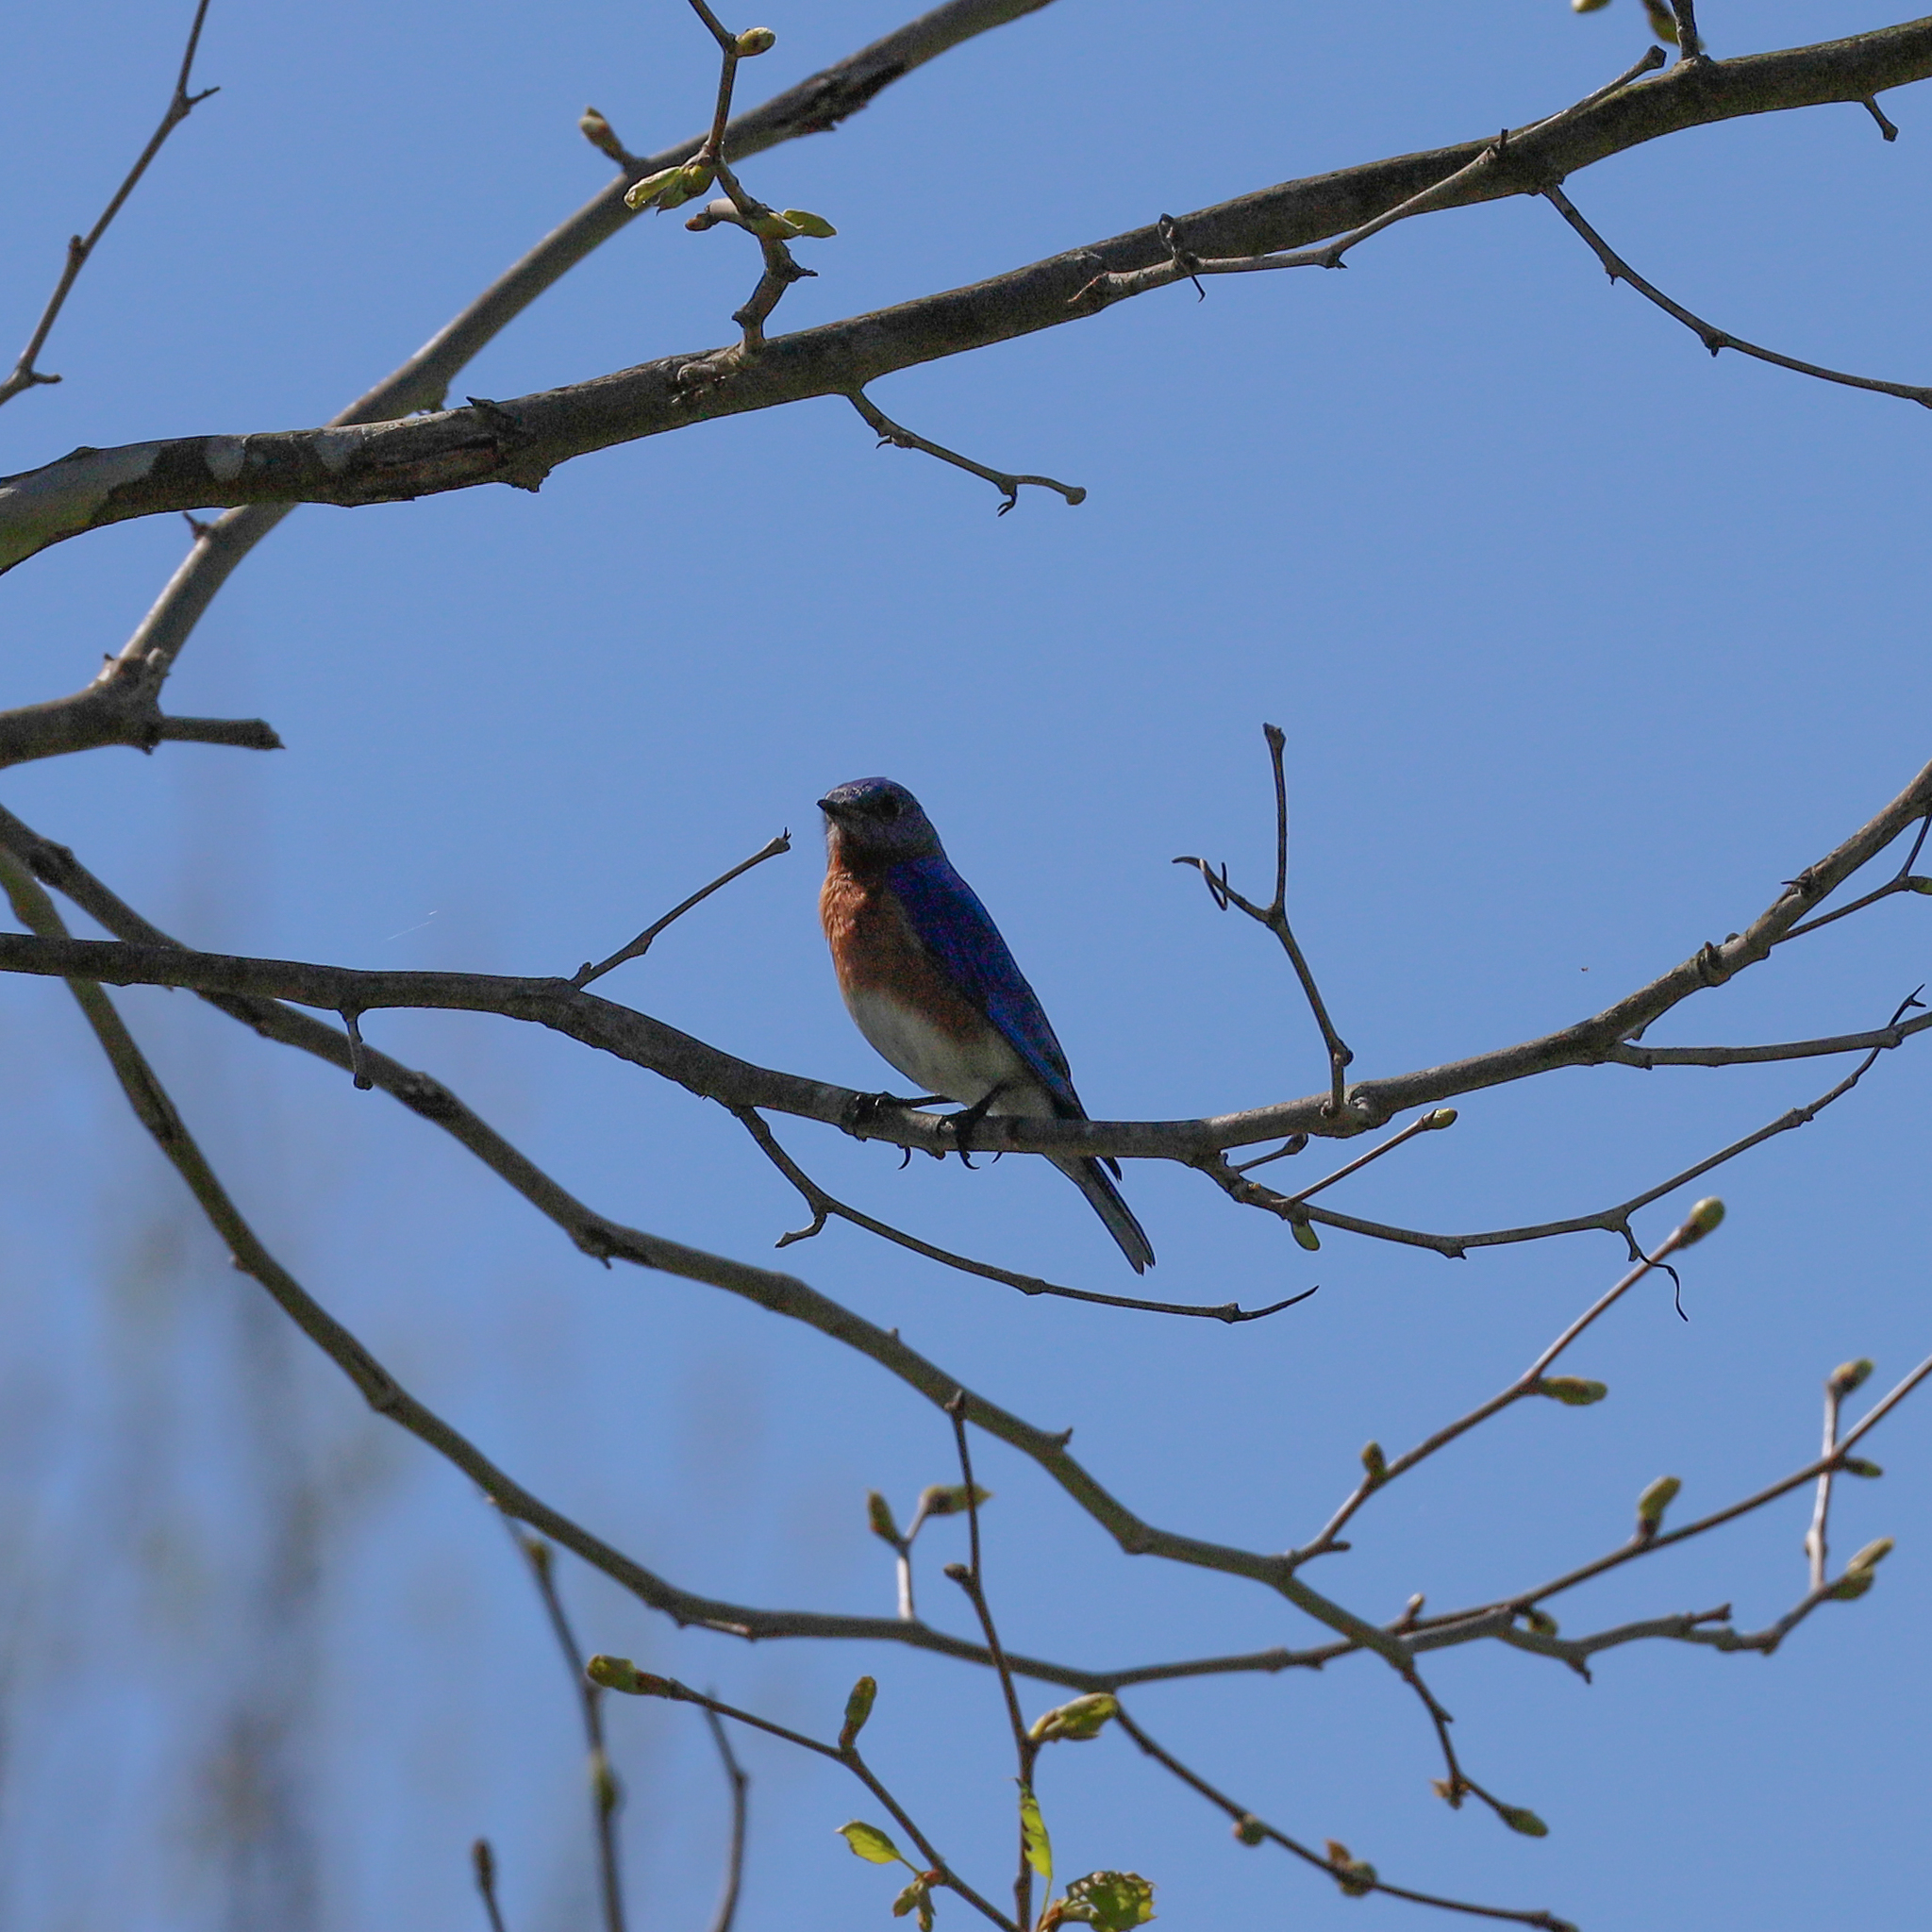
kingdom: Animalia
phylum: Chordata
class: Aves
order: Passeriformes
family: Turdidae
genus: Sialia
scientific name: Sialia sialis
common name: Eastern bluebird
